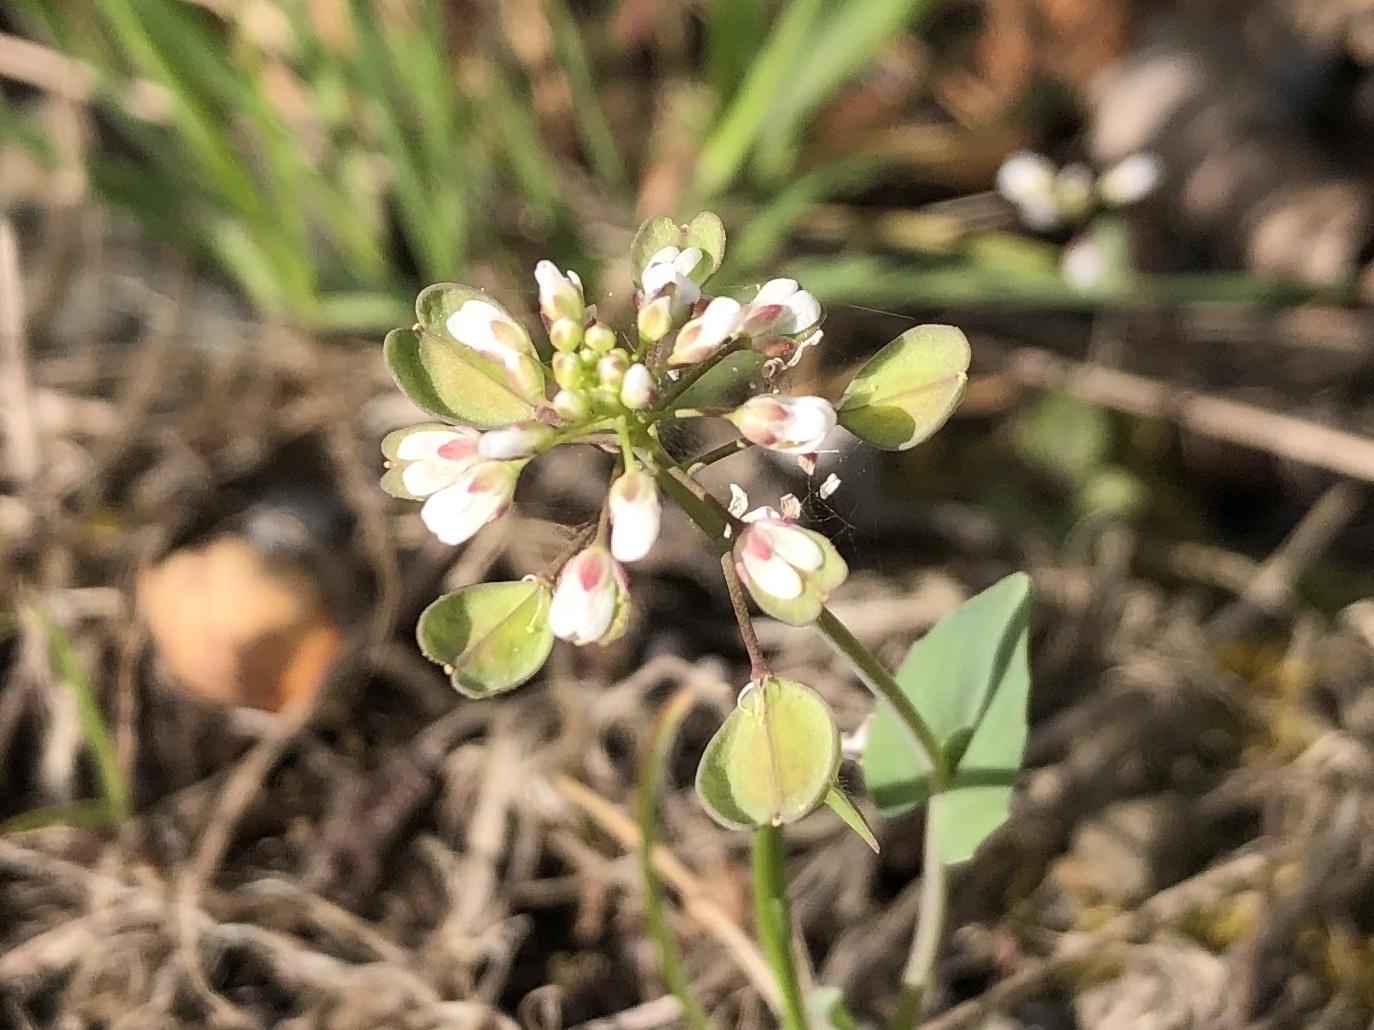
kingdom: Plantae
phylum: Tracheophyta
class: Magnoliopsida
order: Brassicales
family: Brassicaceae
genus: Noccaea
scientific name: Noccaea perfoliata
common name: Perfoliate pennycress
